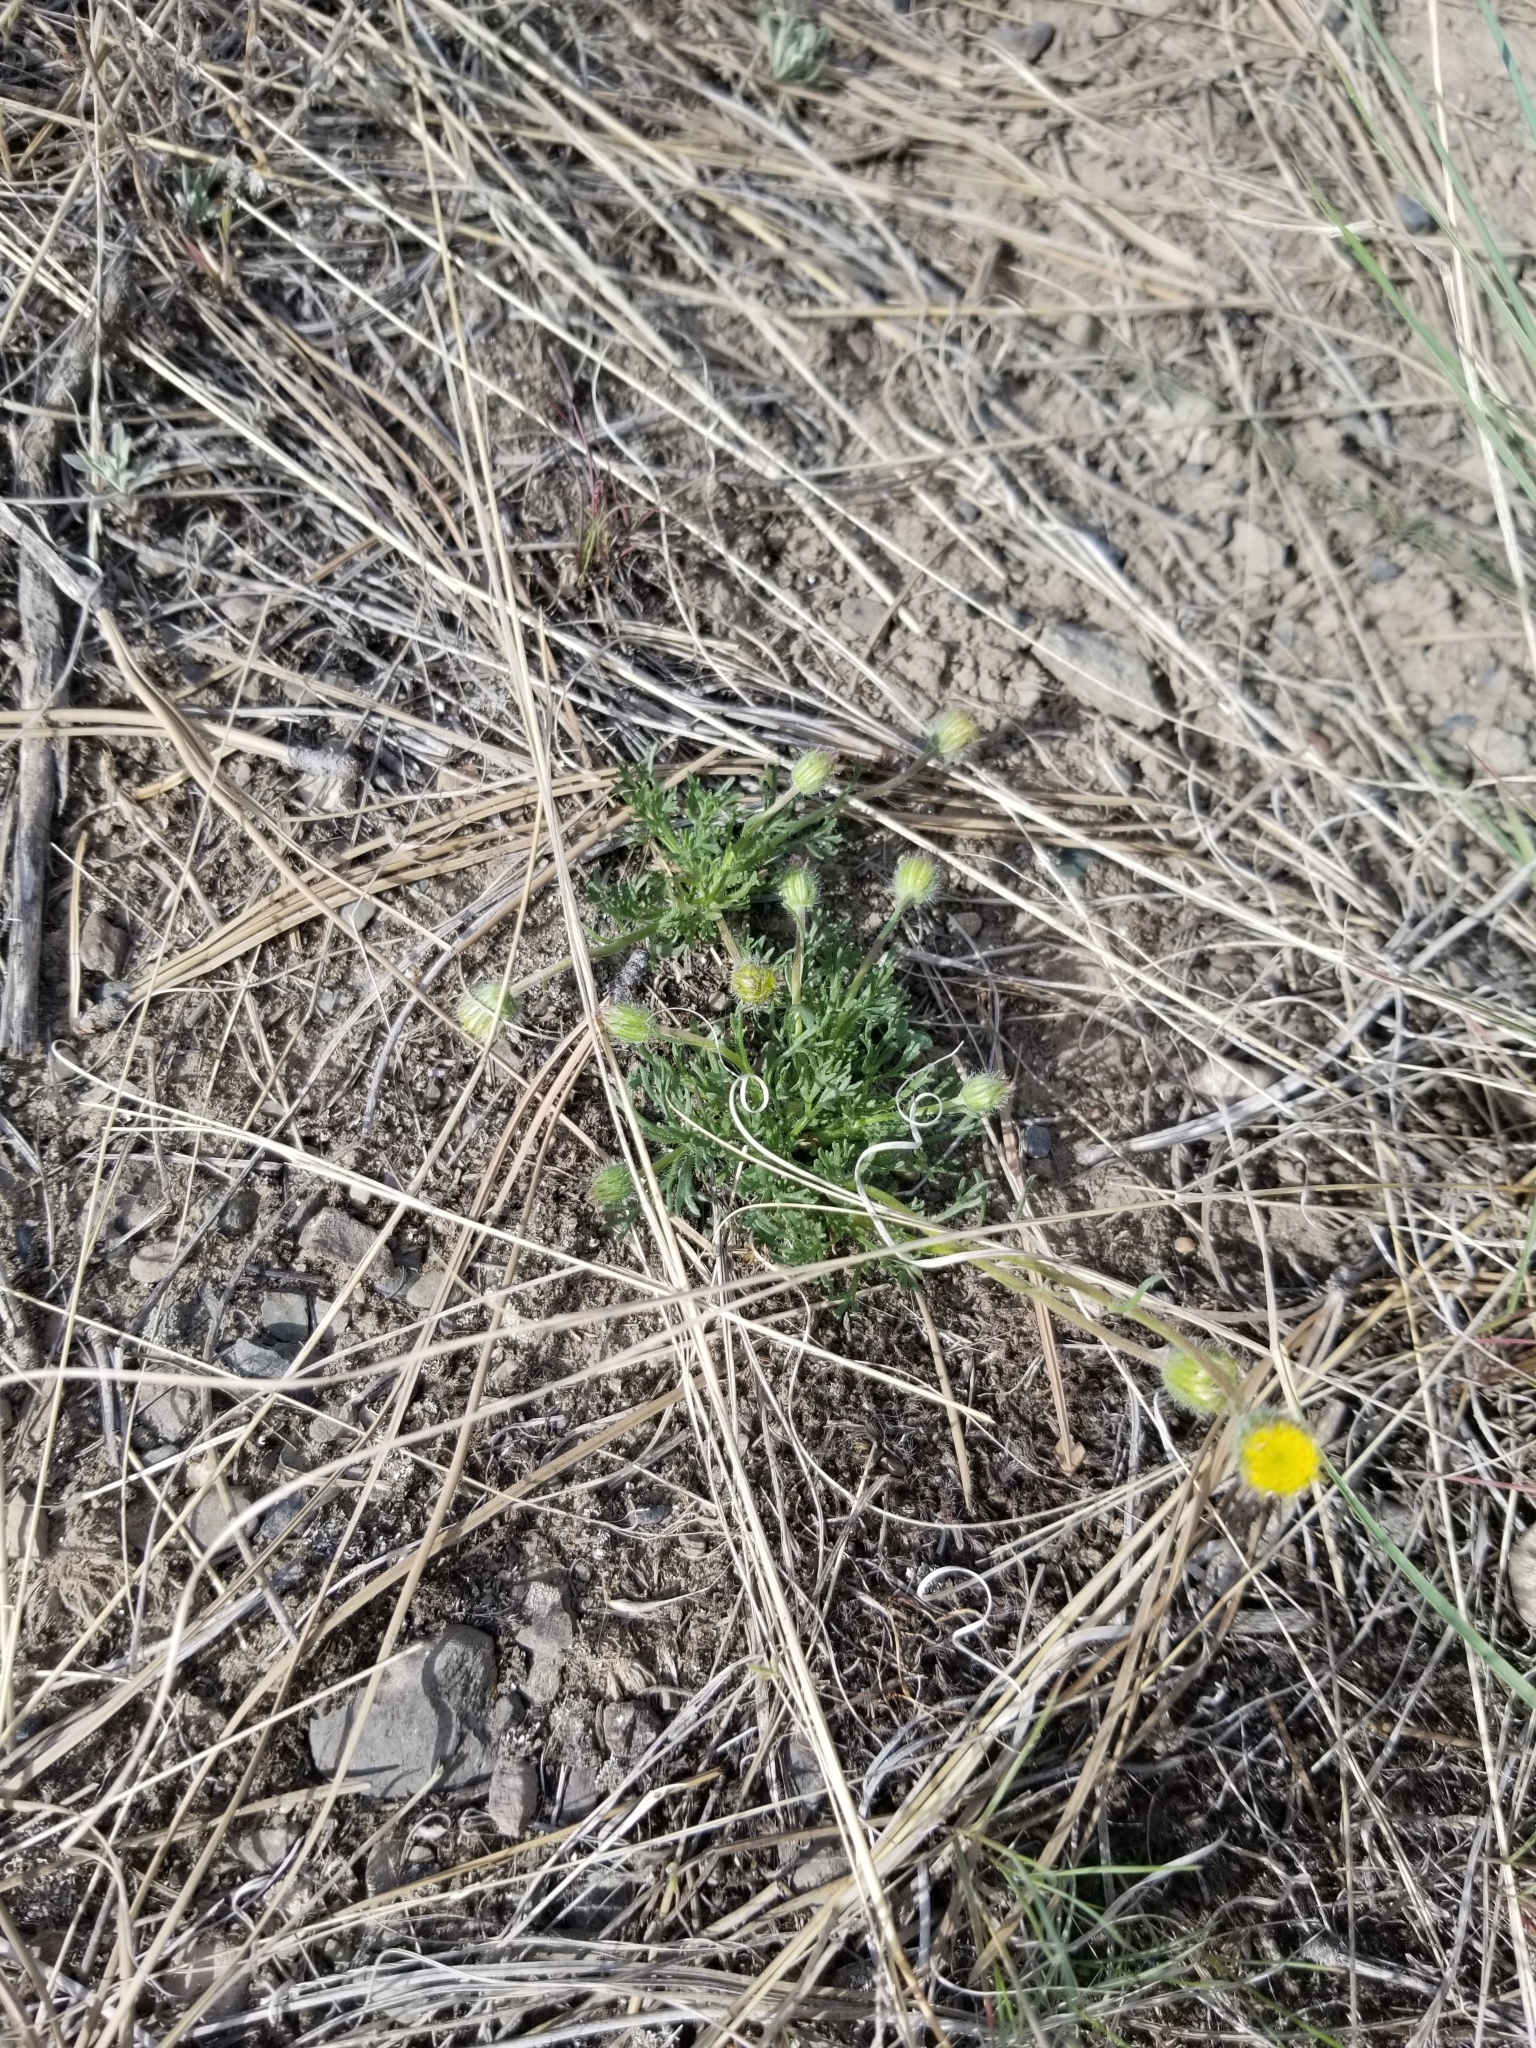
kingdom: Plantae
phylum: Tracheophyta
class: Magnoliopsida
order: Asterales
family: Asteraceae
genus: Erigeron
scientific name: Erigeron compositus
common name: Dwarf mountain fleabane
